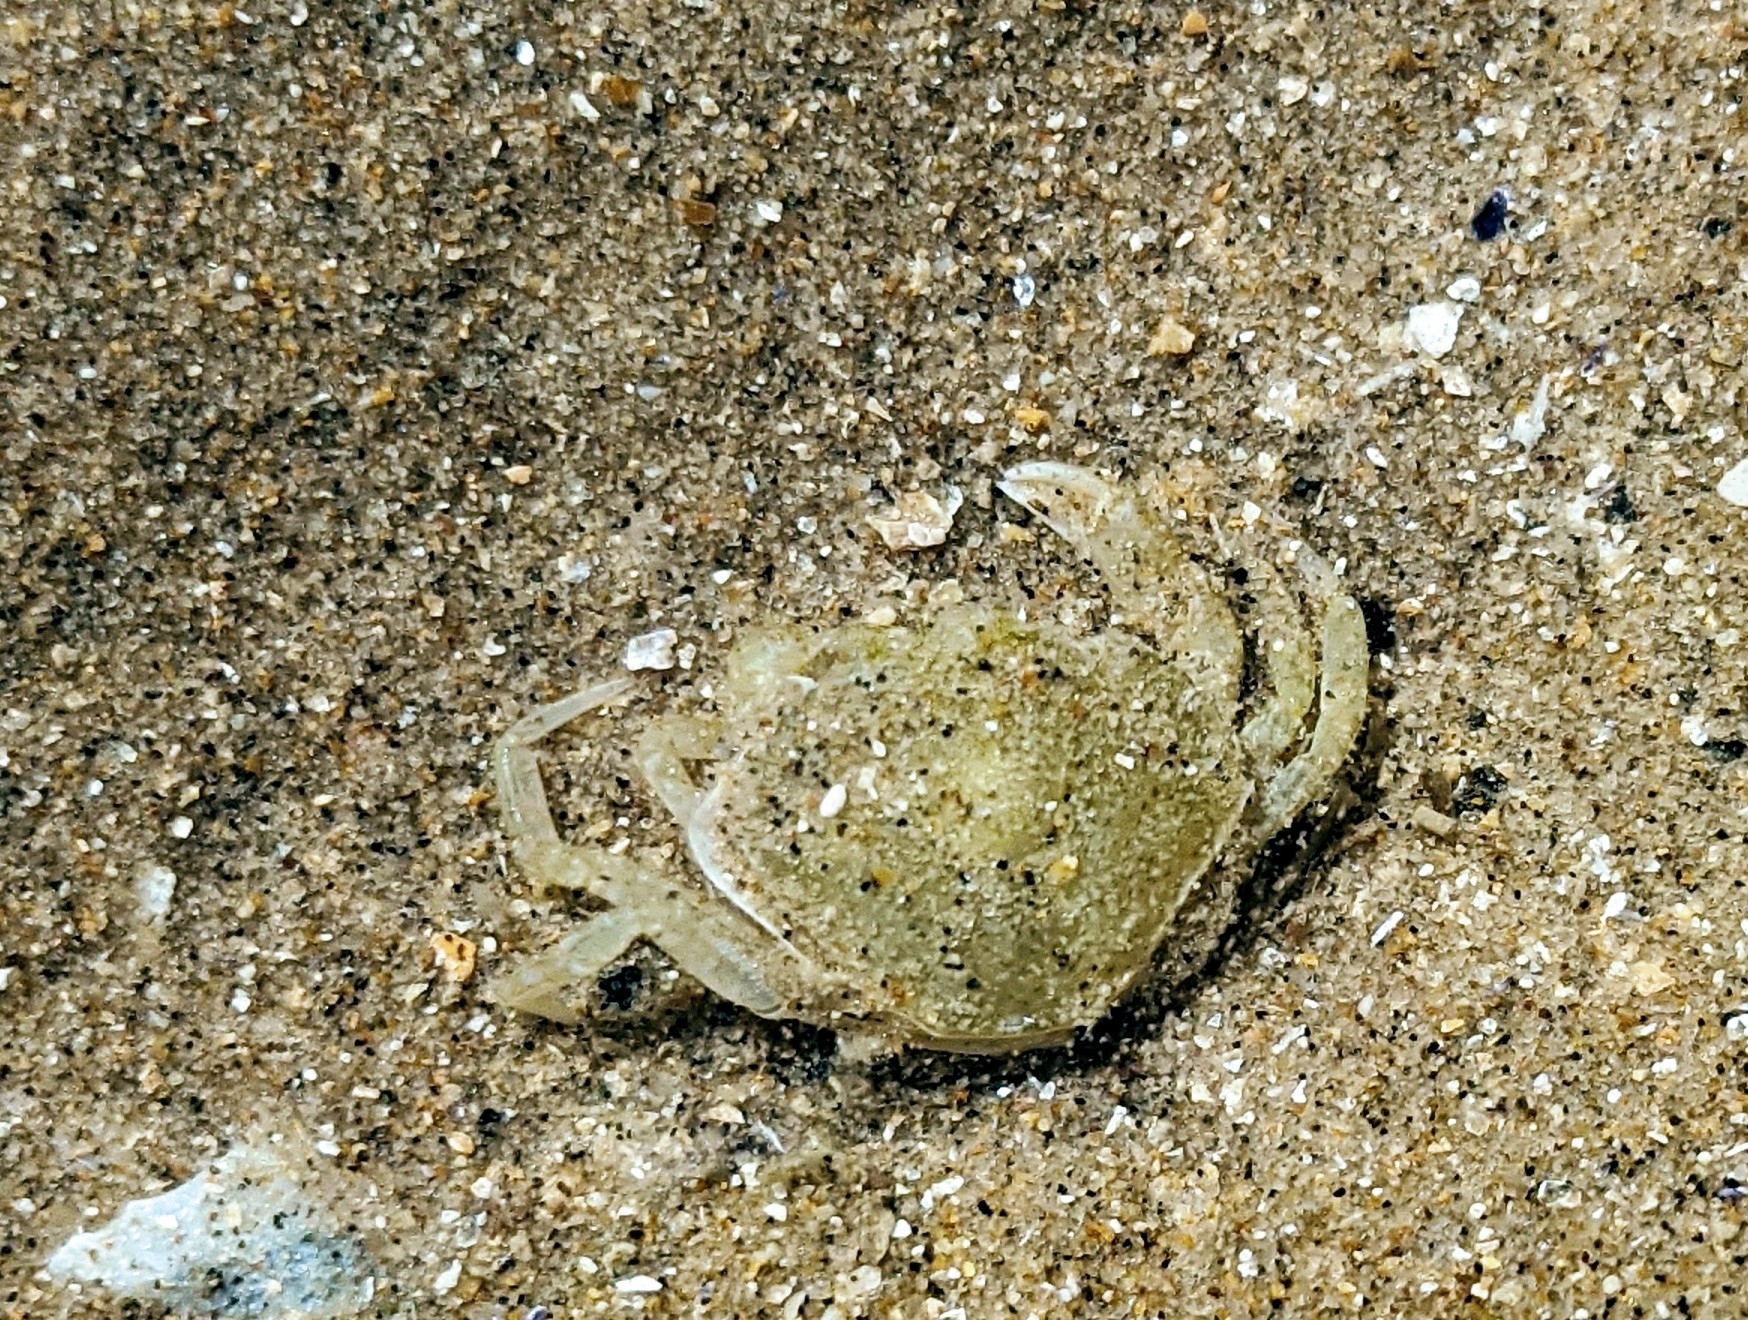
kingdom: Animalia
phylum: Arthropoda
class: Malacostraca
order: Decapoda
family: Carcinidae
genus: Carcinus
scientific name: Carcinus maenas
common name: European green crab
